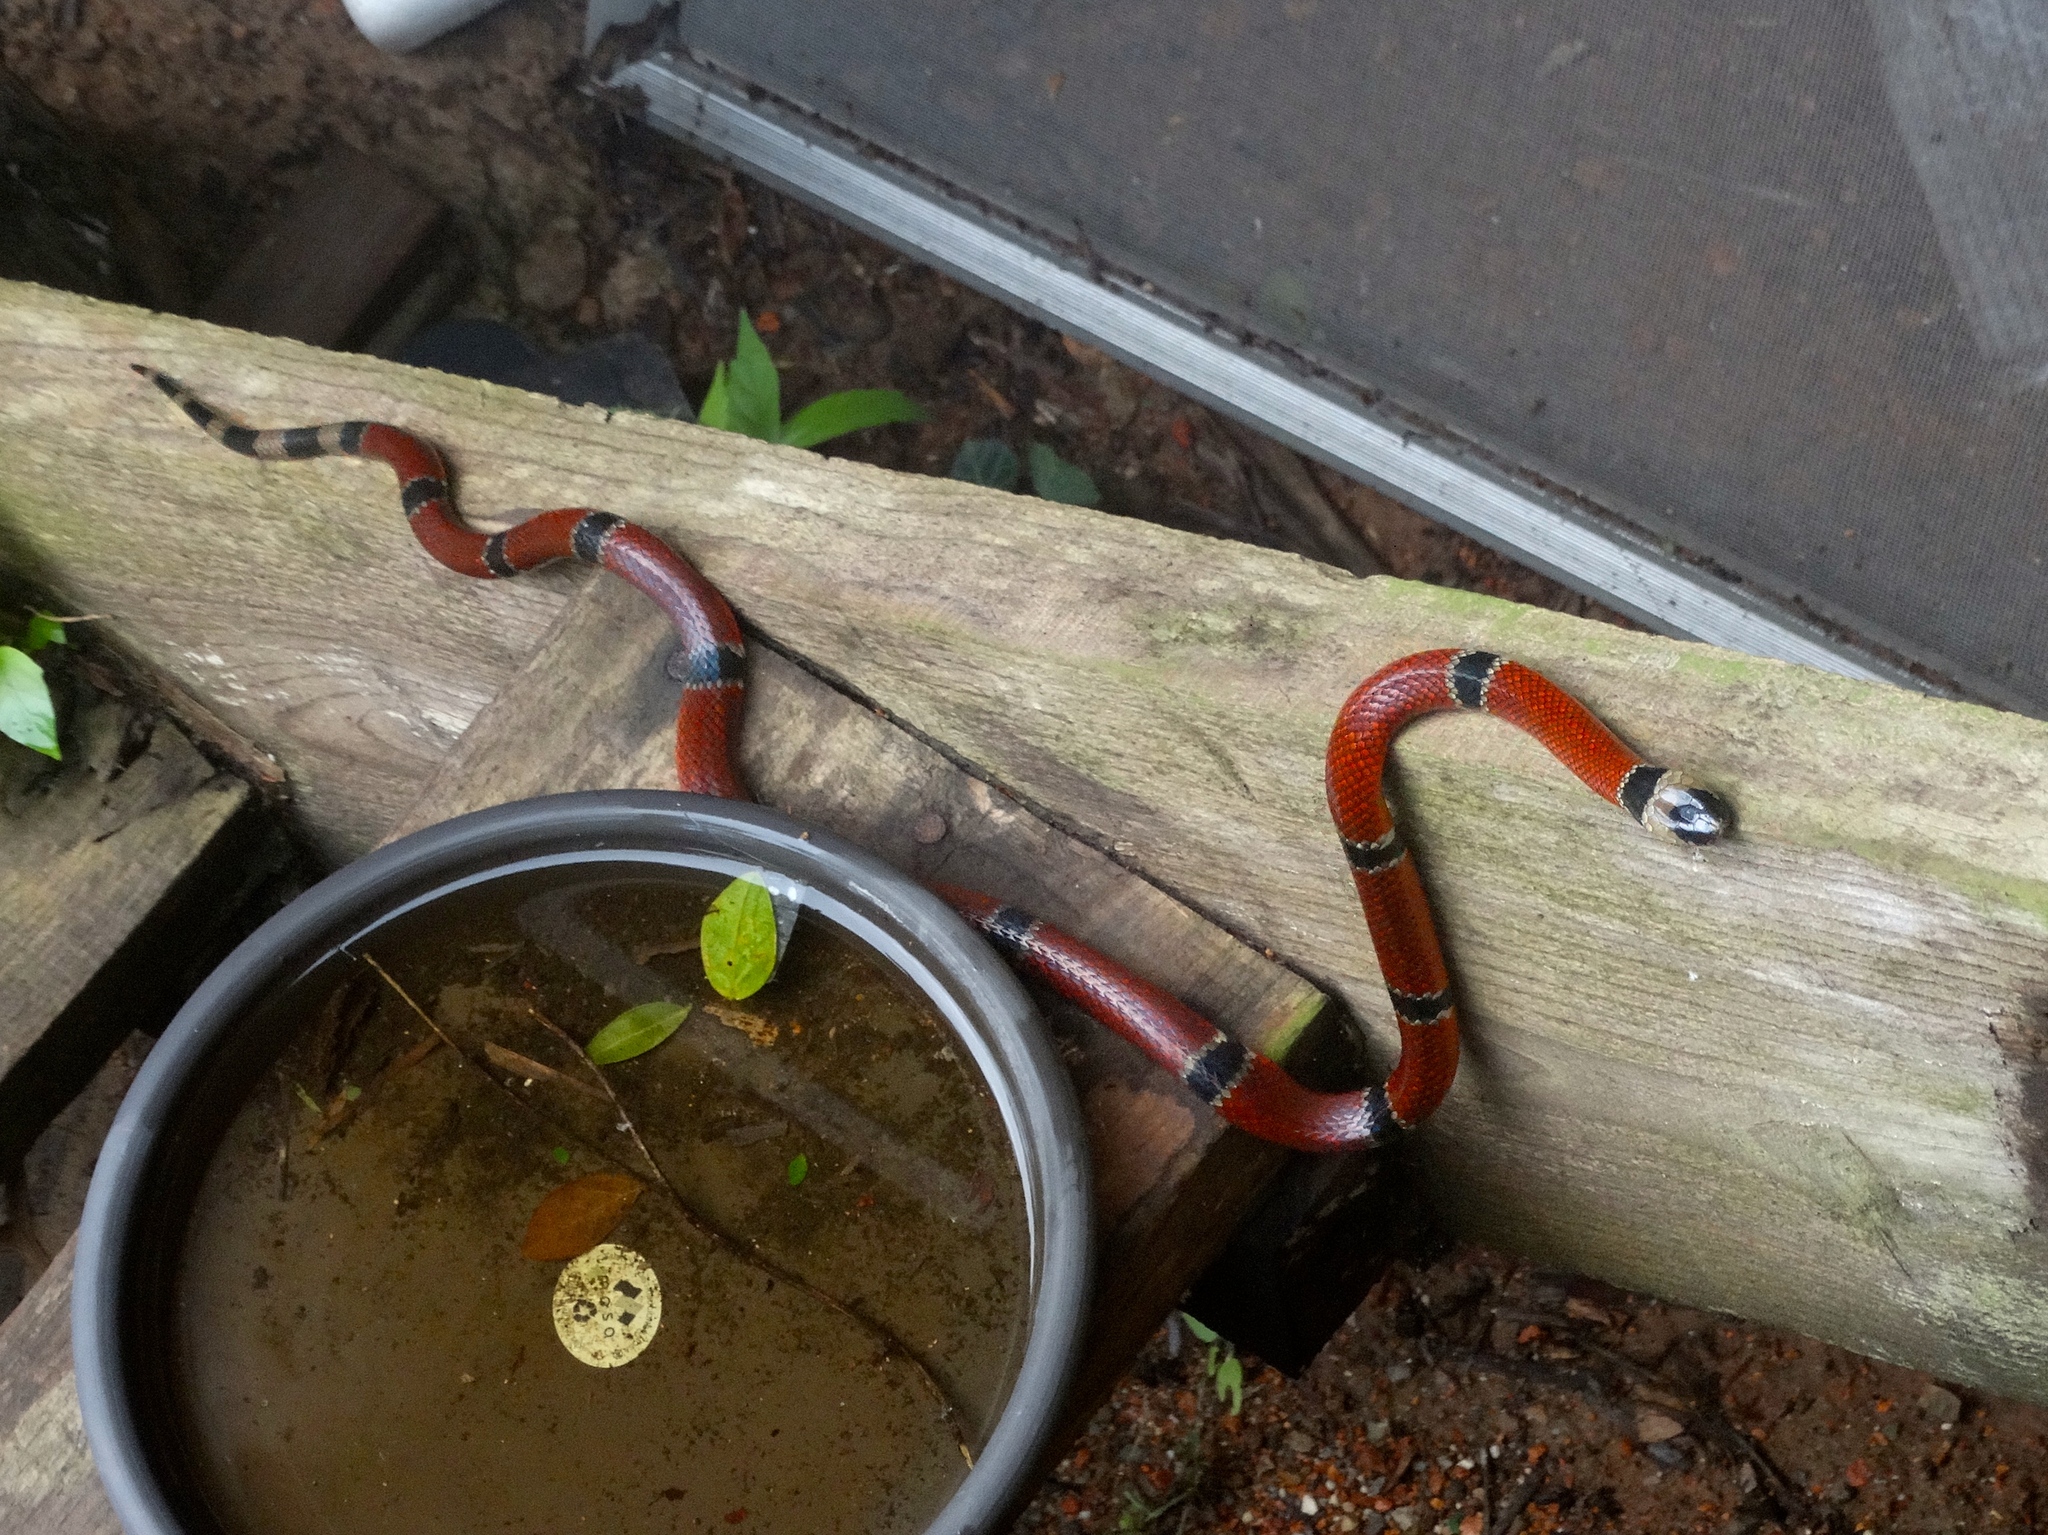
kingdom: Animalia
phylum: Chordata
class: Squamata
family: Elapidae
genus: Micrurus
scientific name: Micrurus distans
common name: Clear-banded coral snake
